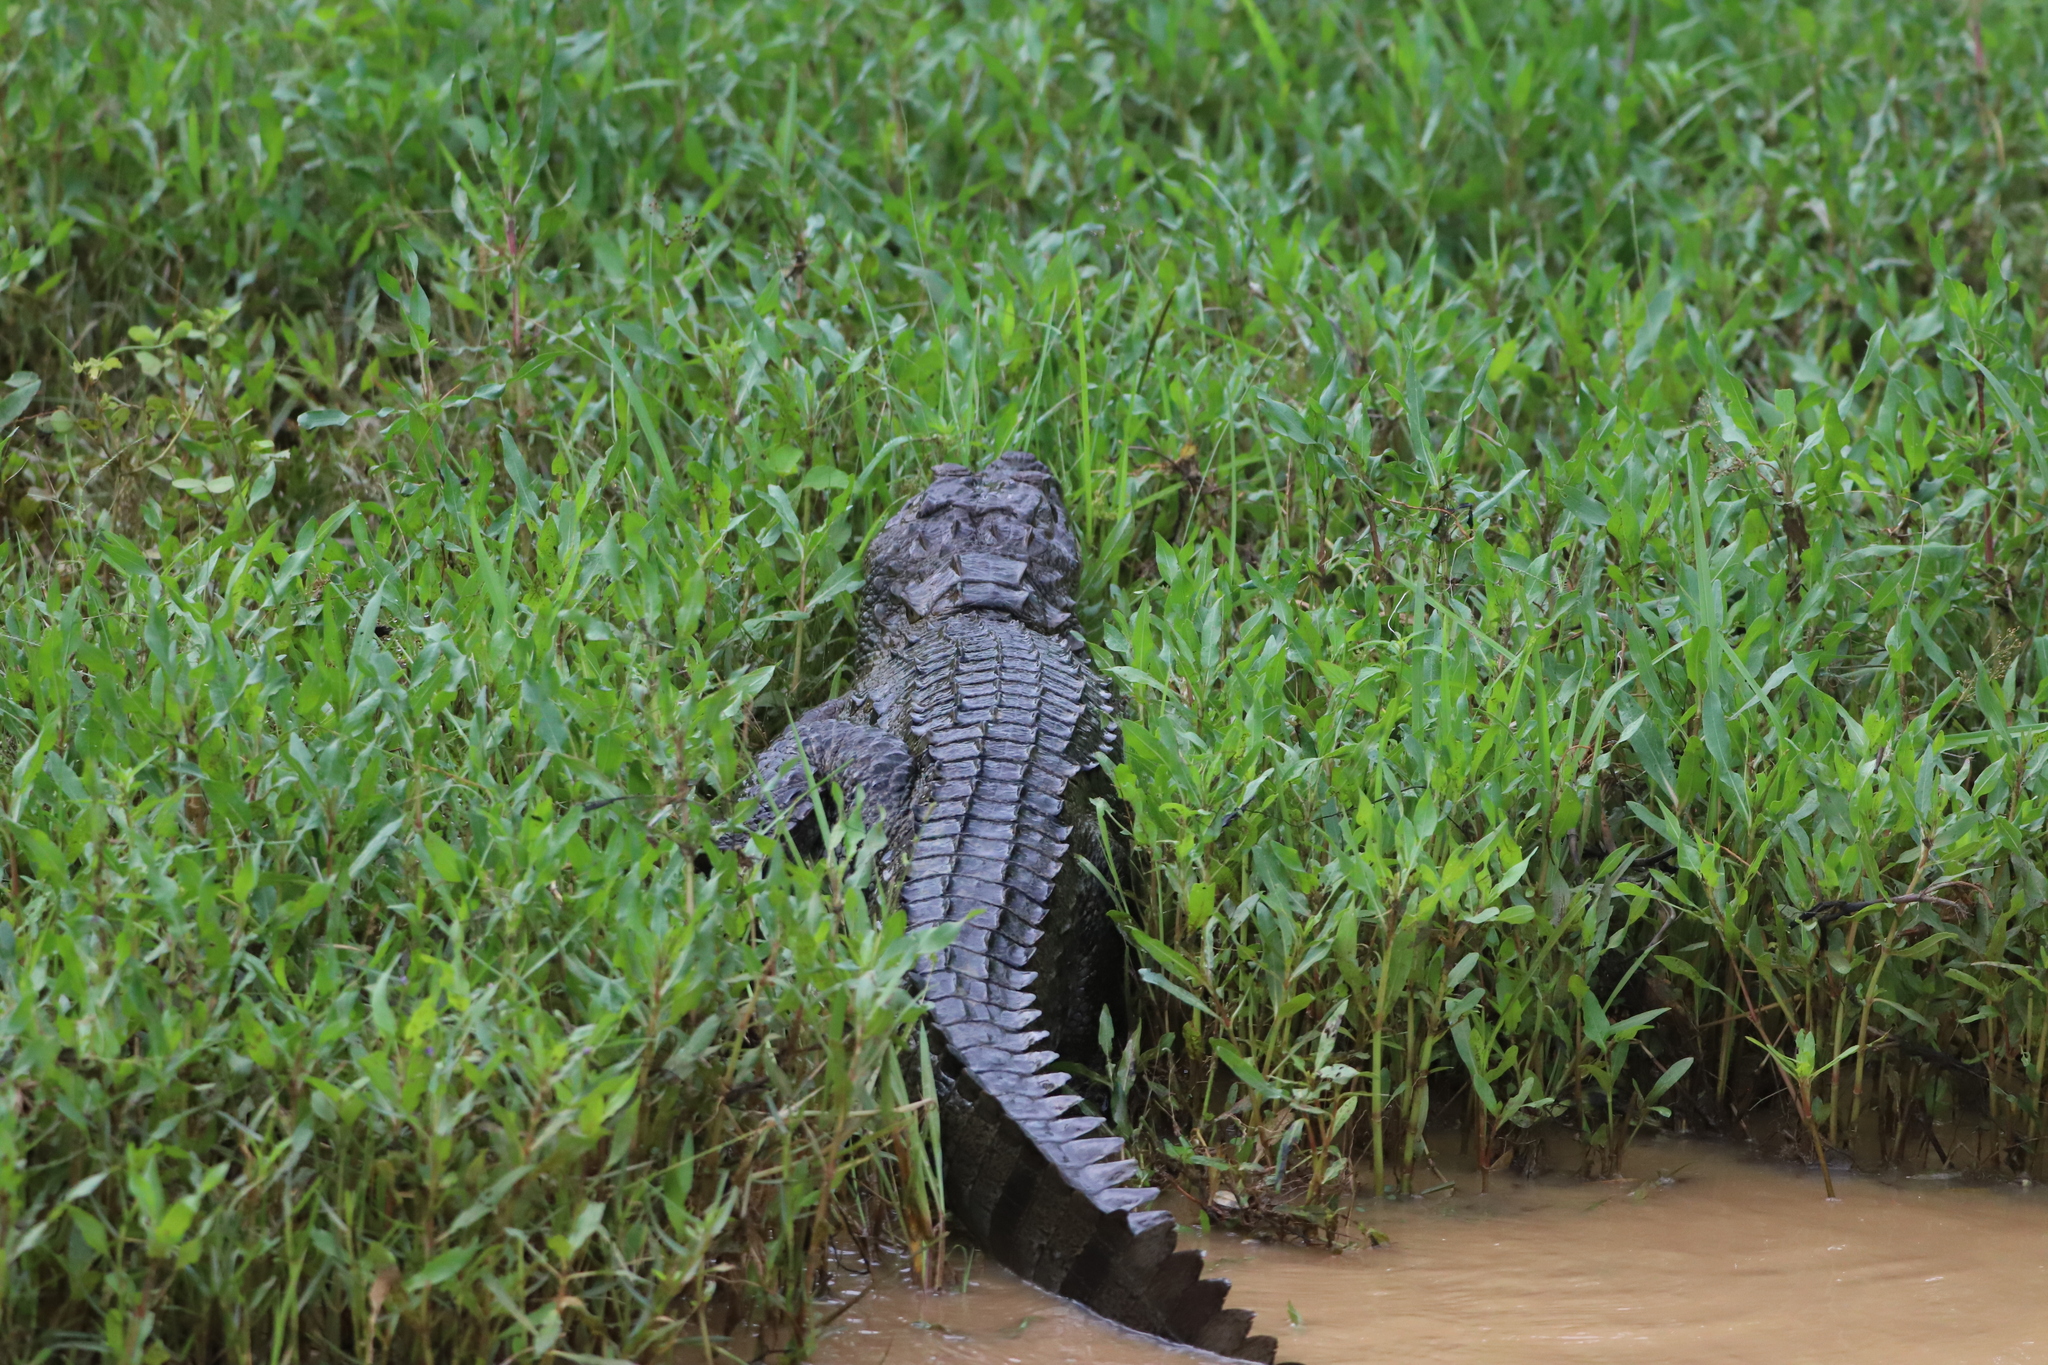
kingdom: Animalia
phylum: Chordata
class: Crocodylia
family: Crocodylidae
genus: Crocodylus
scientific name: Crocodylus palustris
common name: Mugger crocodile
